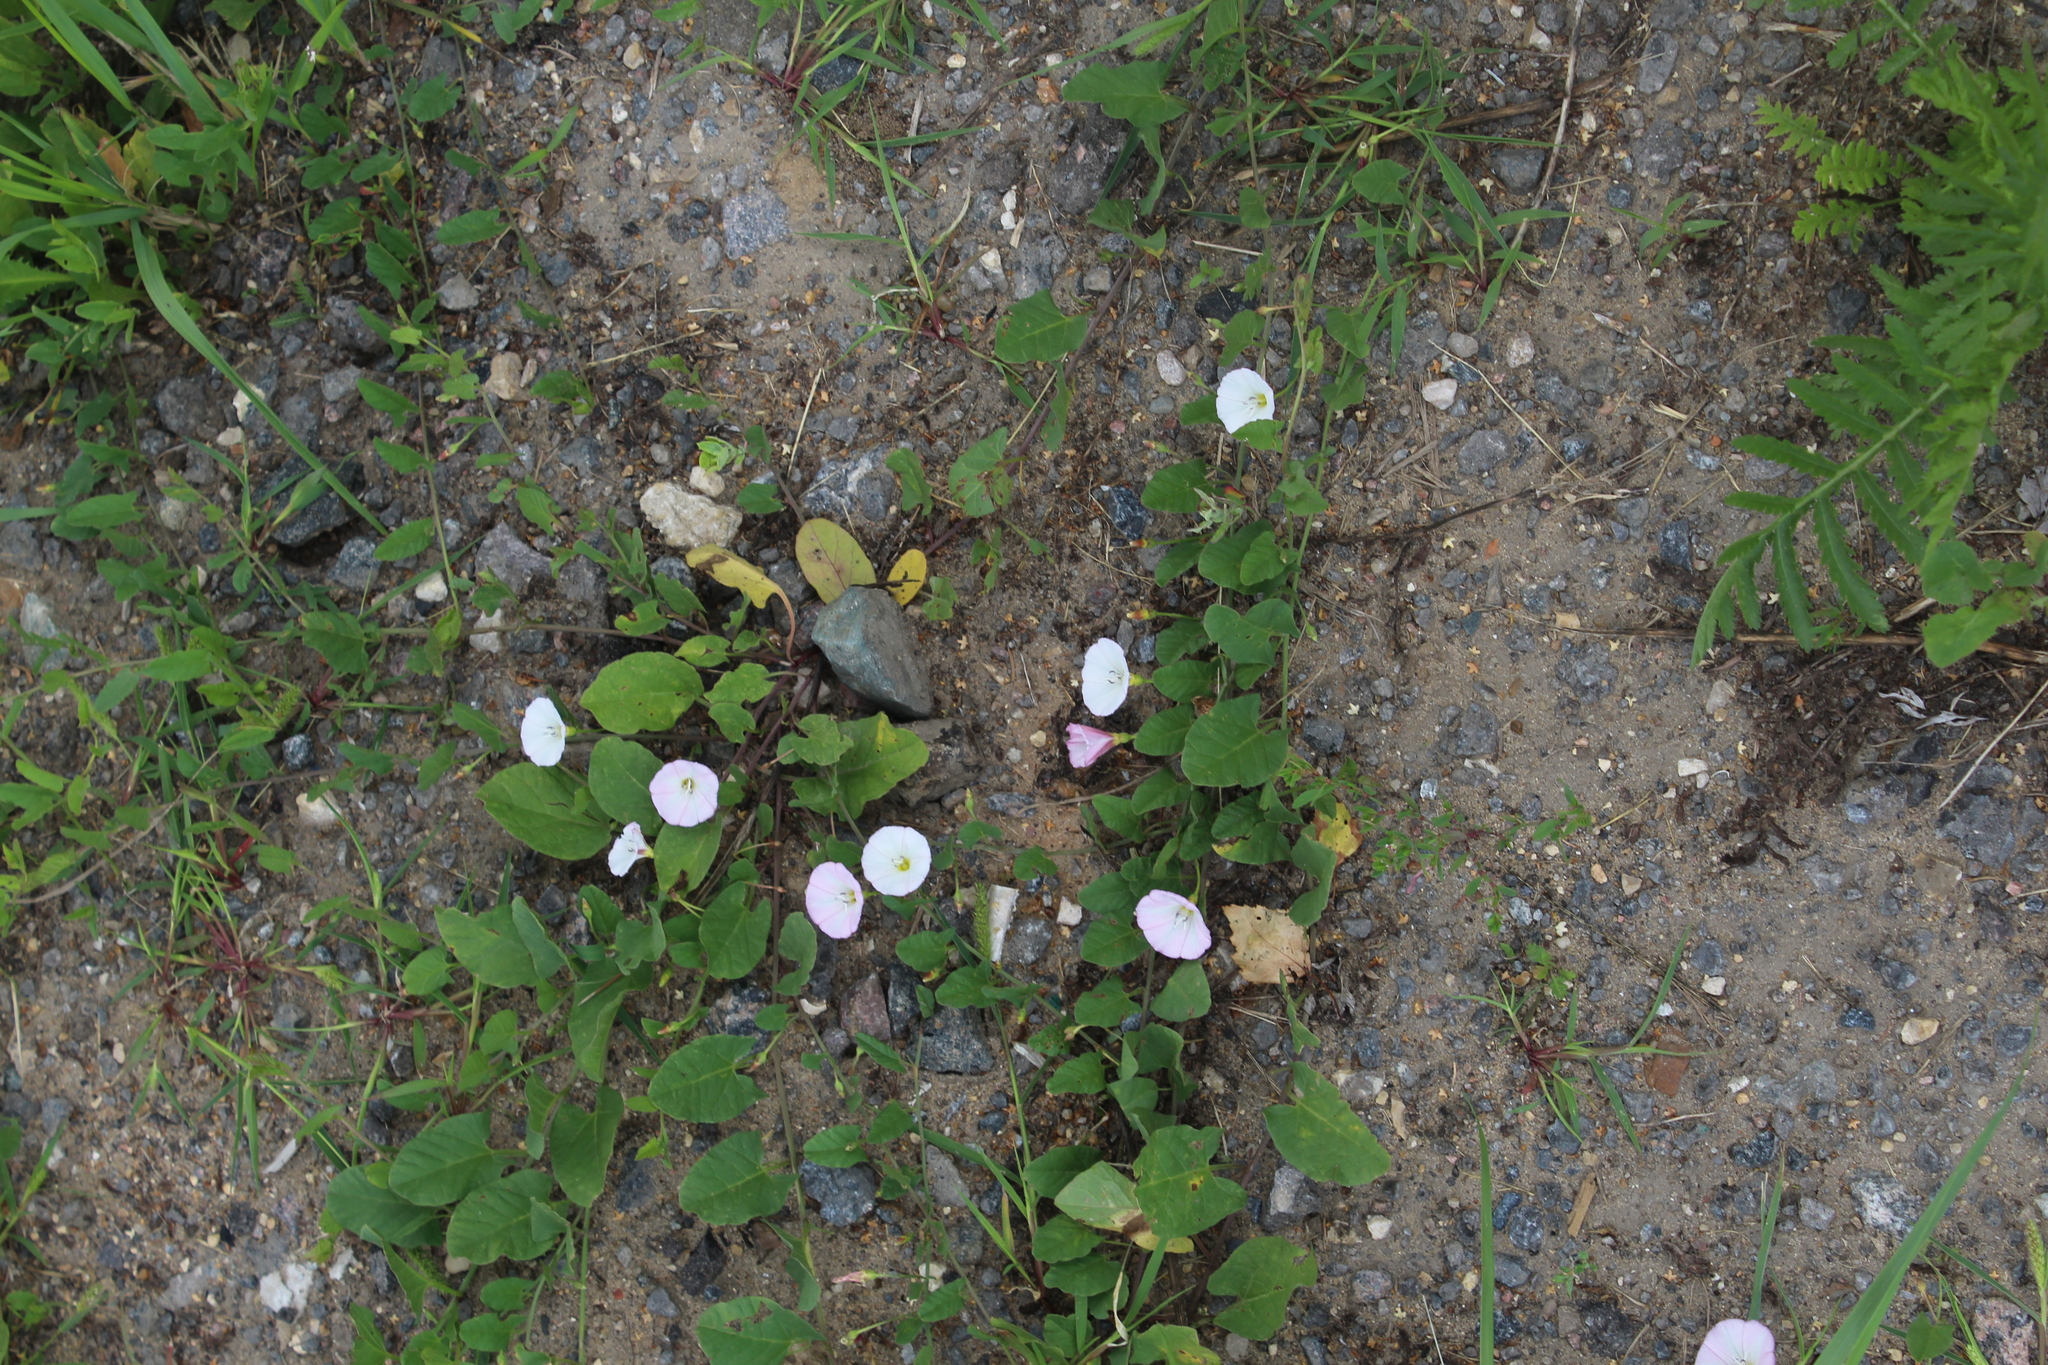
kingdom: Plantae
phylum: Tracheophyta
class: Magnoliopsida
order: Solanales
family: Convolvulaceae
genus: Convolvulus
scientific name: Convolvulus arvensis
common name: Field bindweed
